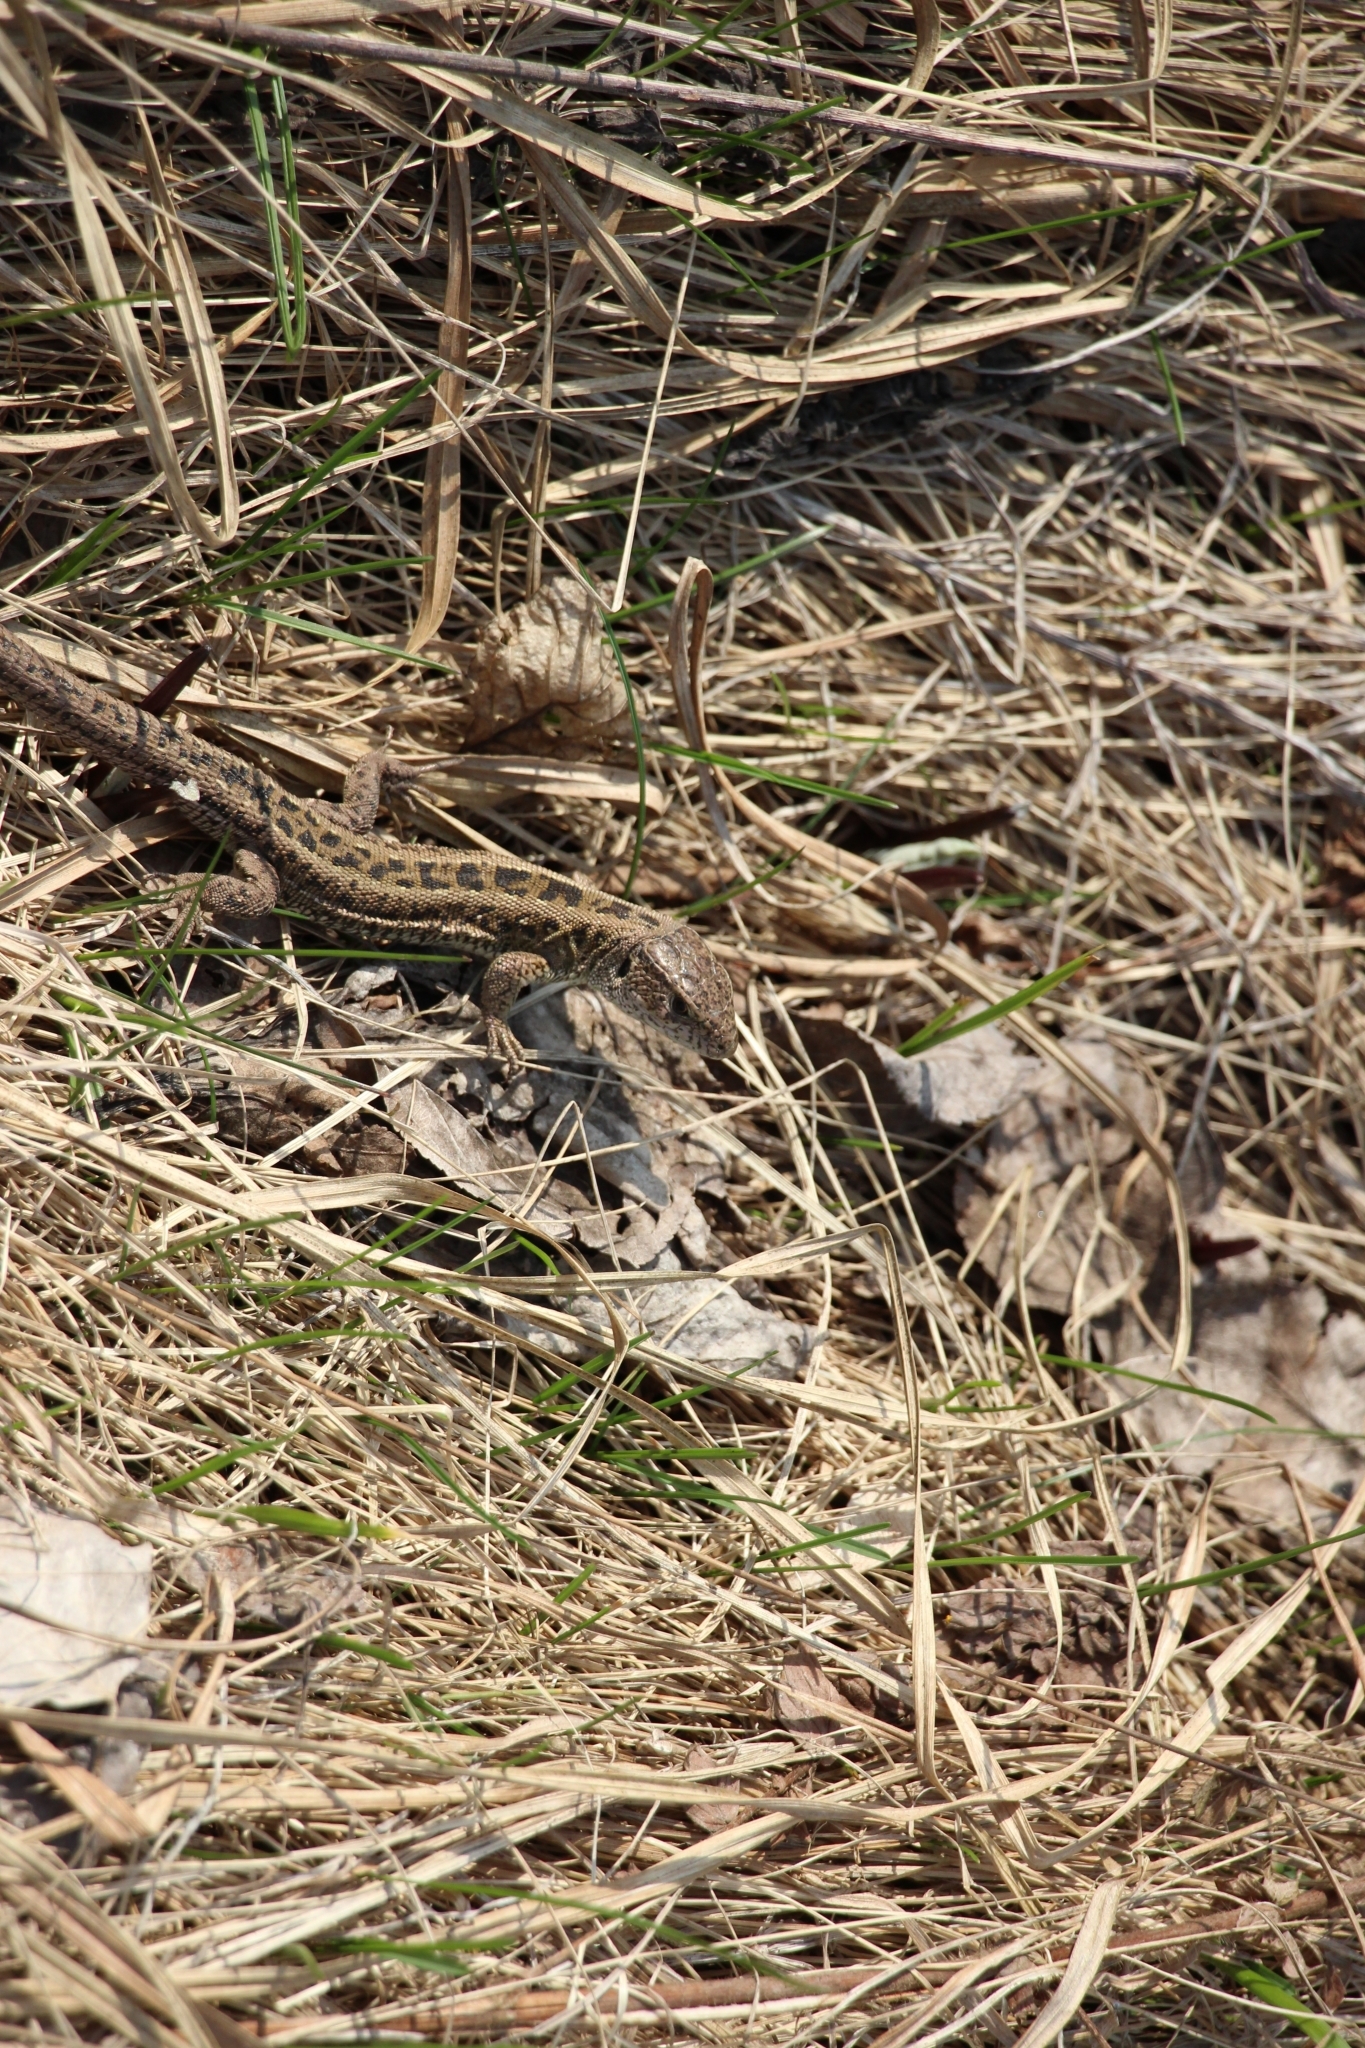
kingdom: Animalia
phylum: Chordata
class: Squamata
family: Lacertidae
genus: Lacerta
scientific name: Lacerta agilis
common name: Sand lizard
